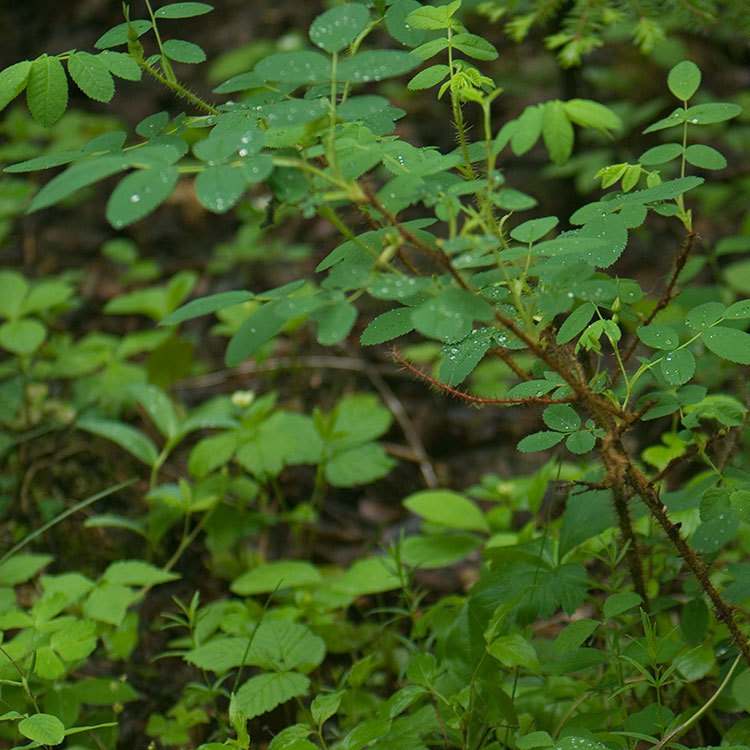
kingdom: Plantae
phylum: Tracheophyta
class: Magnoliopsida
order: Rosales
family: Rosaceae
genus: Rosa
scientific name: Rosa acicularis
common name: Prickly rose
